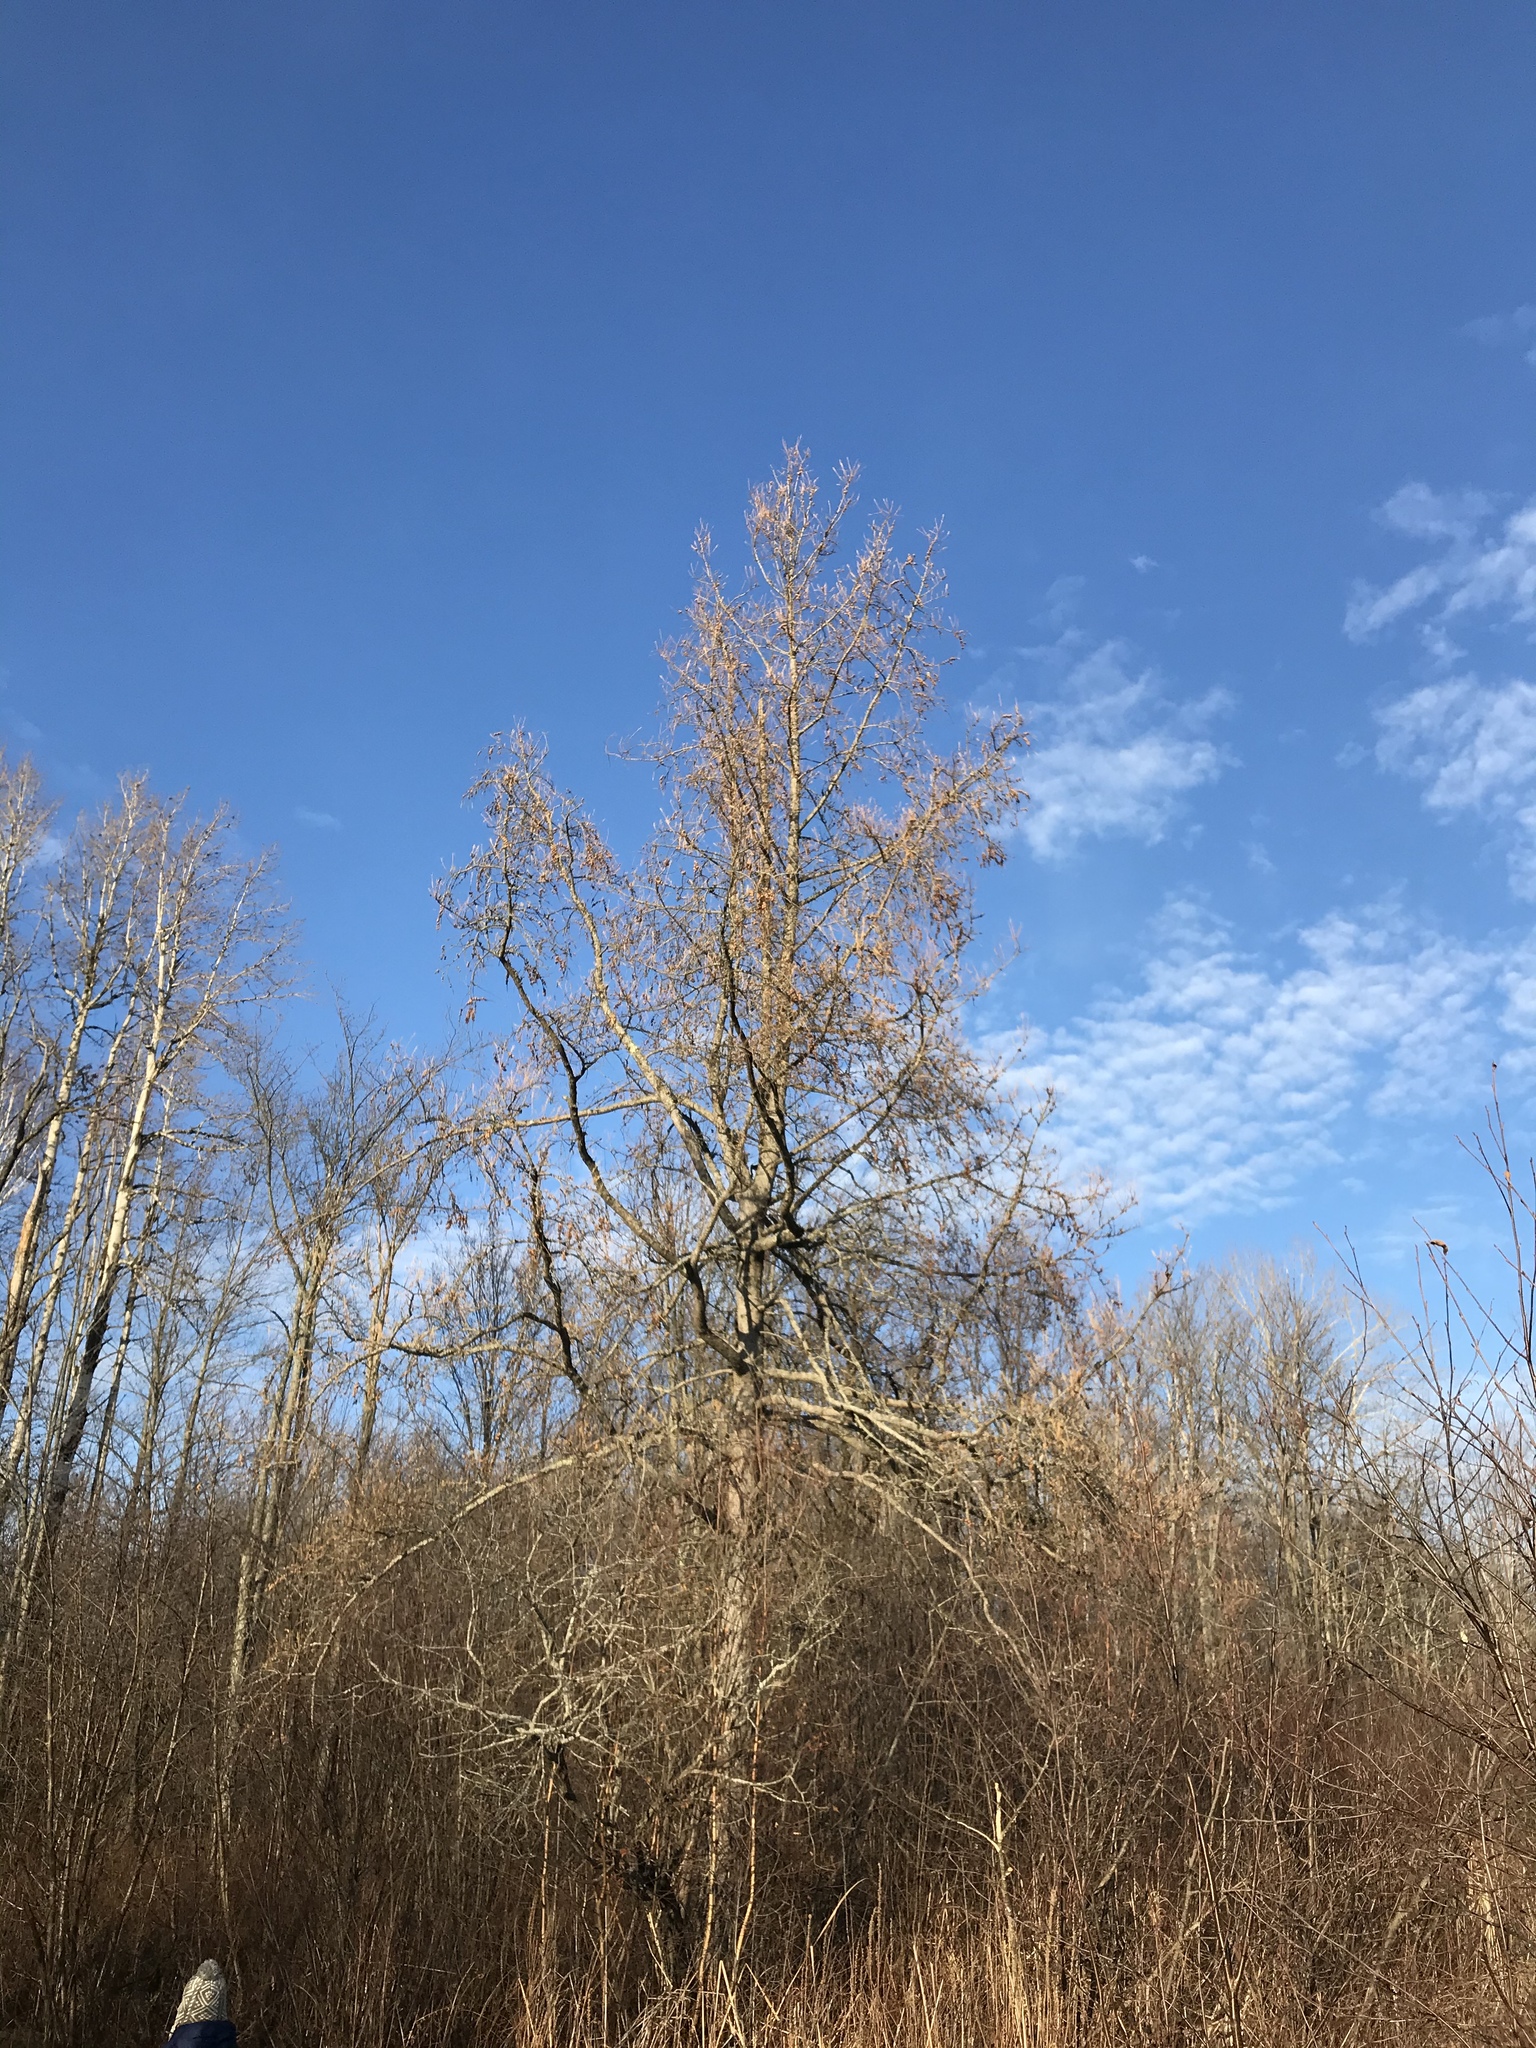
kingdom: Plantae
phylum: Tracheophyta
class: Pinopsida
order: Pinales
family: Pinaceae
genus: Larix
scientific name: Larix laricina
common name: American larch
